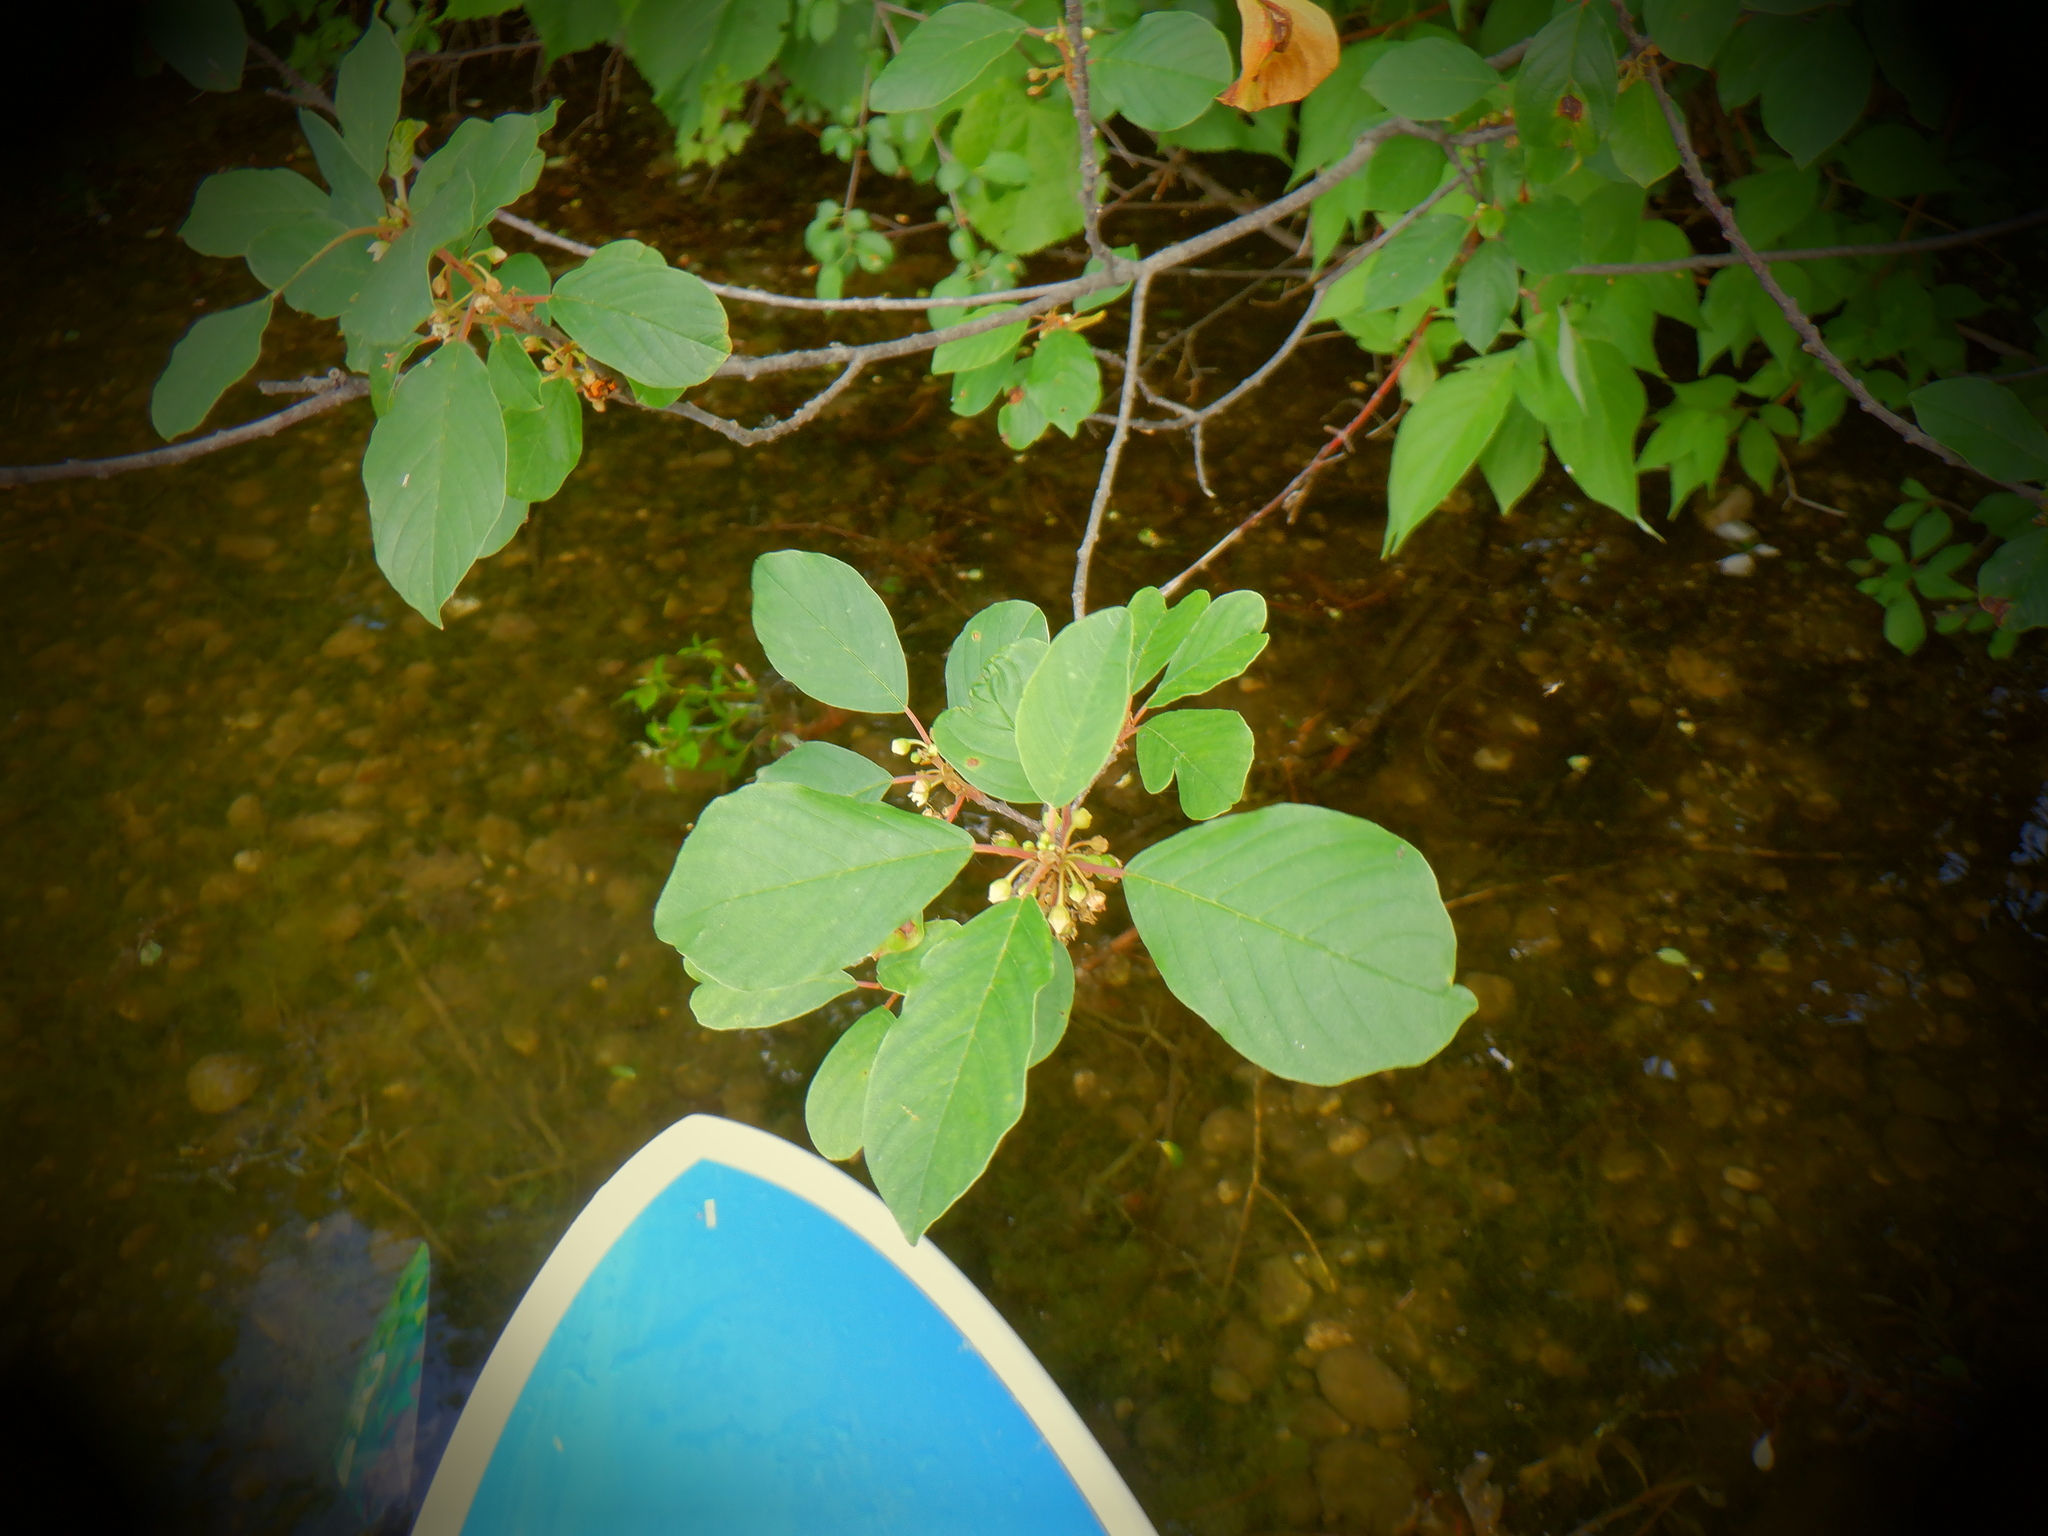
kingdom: Plantae
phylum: Tracheophyta
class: Magnoliopsida
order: Rosales
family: Rhamnaceae
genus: Frangula
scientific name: Frangula alnus
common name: Alder buckthorn
